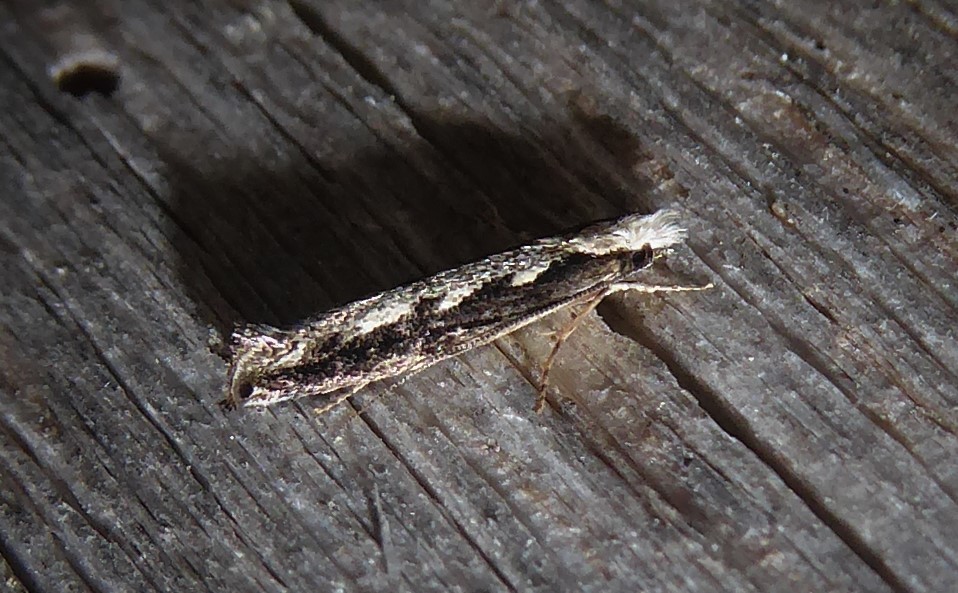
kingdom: Animalia
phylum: Arthropoda
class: Insecta
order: Lepidoptera
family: Tineidae
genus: Erechthias
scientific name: Erechthias fulguritella
